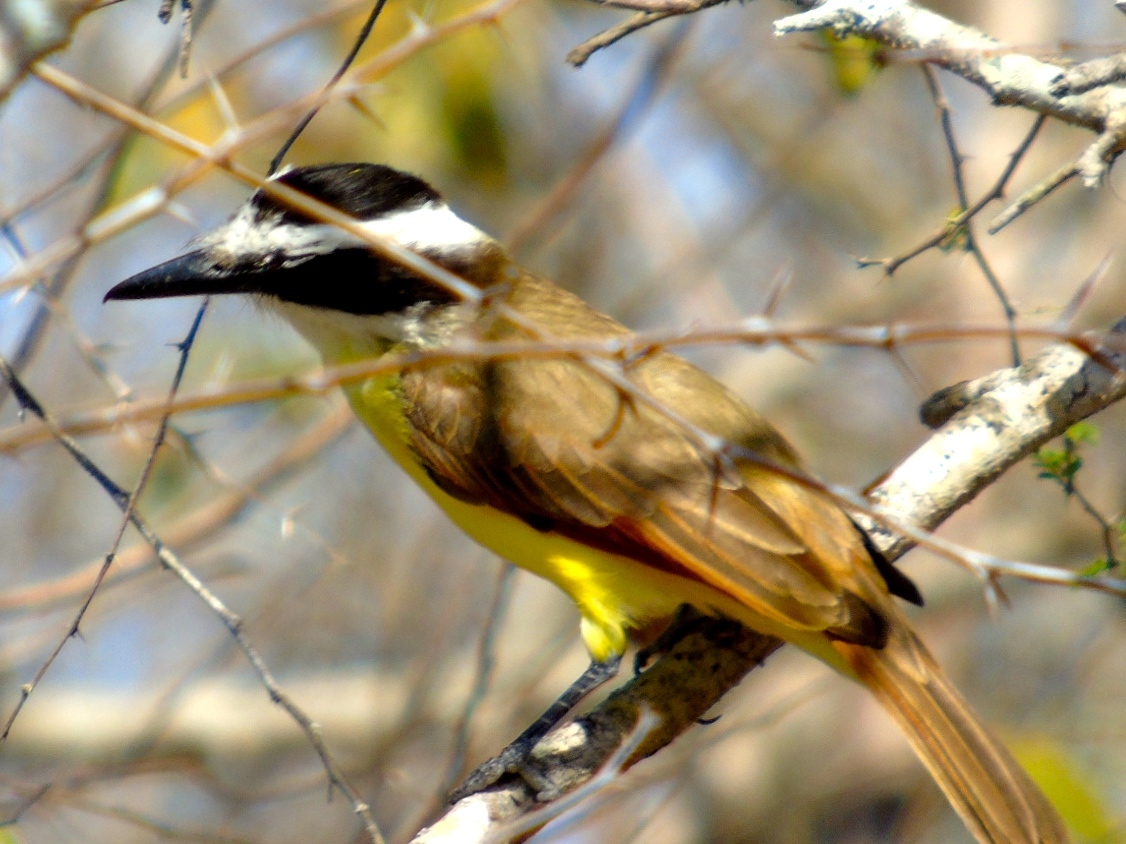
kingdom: Animalia
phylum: Chordata
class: Aves
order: Passeriformes
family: Tyrannidae
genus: Pitangus
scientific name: Pitangus sulphuratus
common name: Great kiskadee
